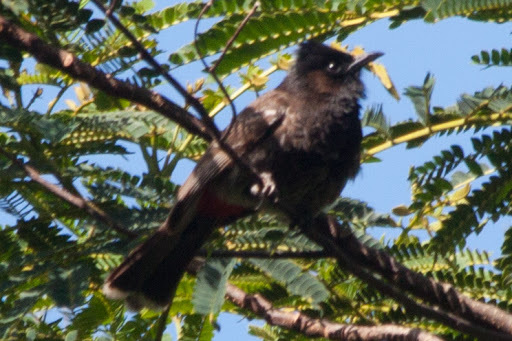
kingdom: Animalia
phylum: Chordata
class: Aves
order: Passeriformes
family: Pycnonotidae
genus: Pycnonotus
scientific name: Pycnonotus cafer
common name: Red-vented bulbul
